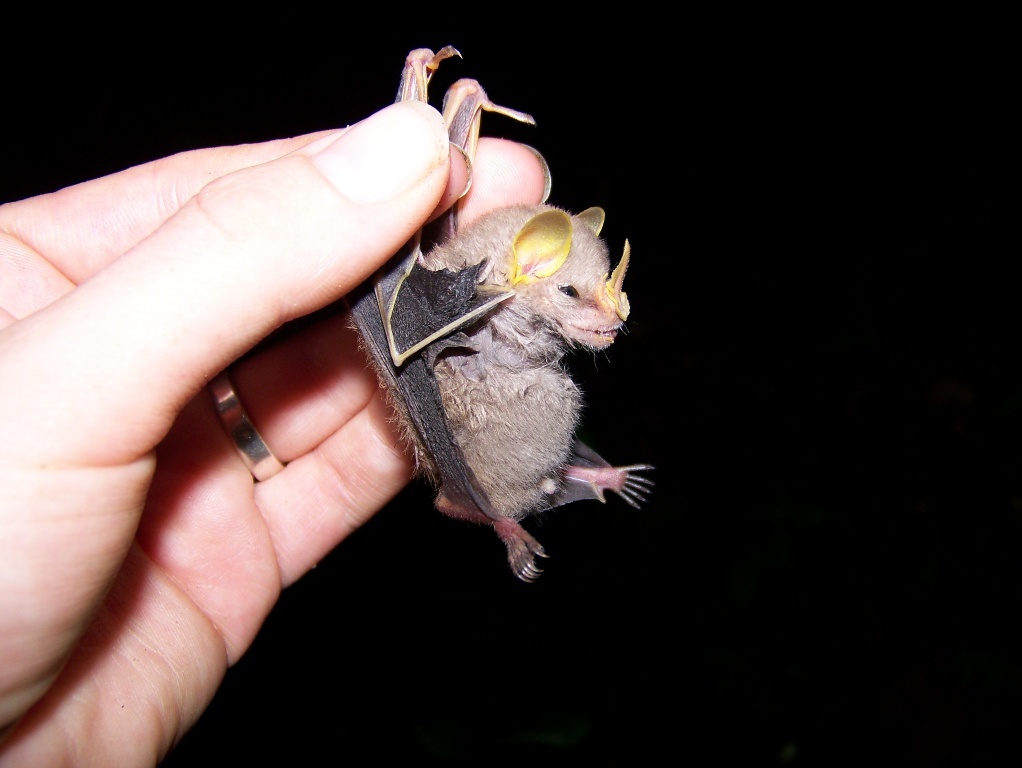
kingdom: Animalia
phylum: Chordata
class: Mammalia
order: Chiroptera
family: Phyllostomidae
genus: Mesophylla
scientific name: Mesophylla macconnelli
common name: Macconnell's bat
